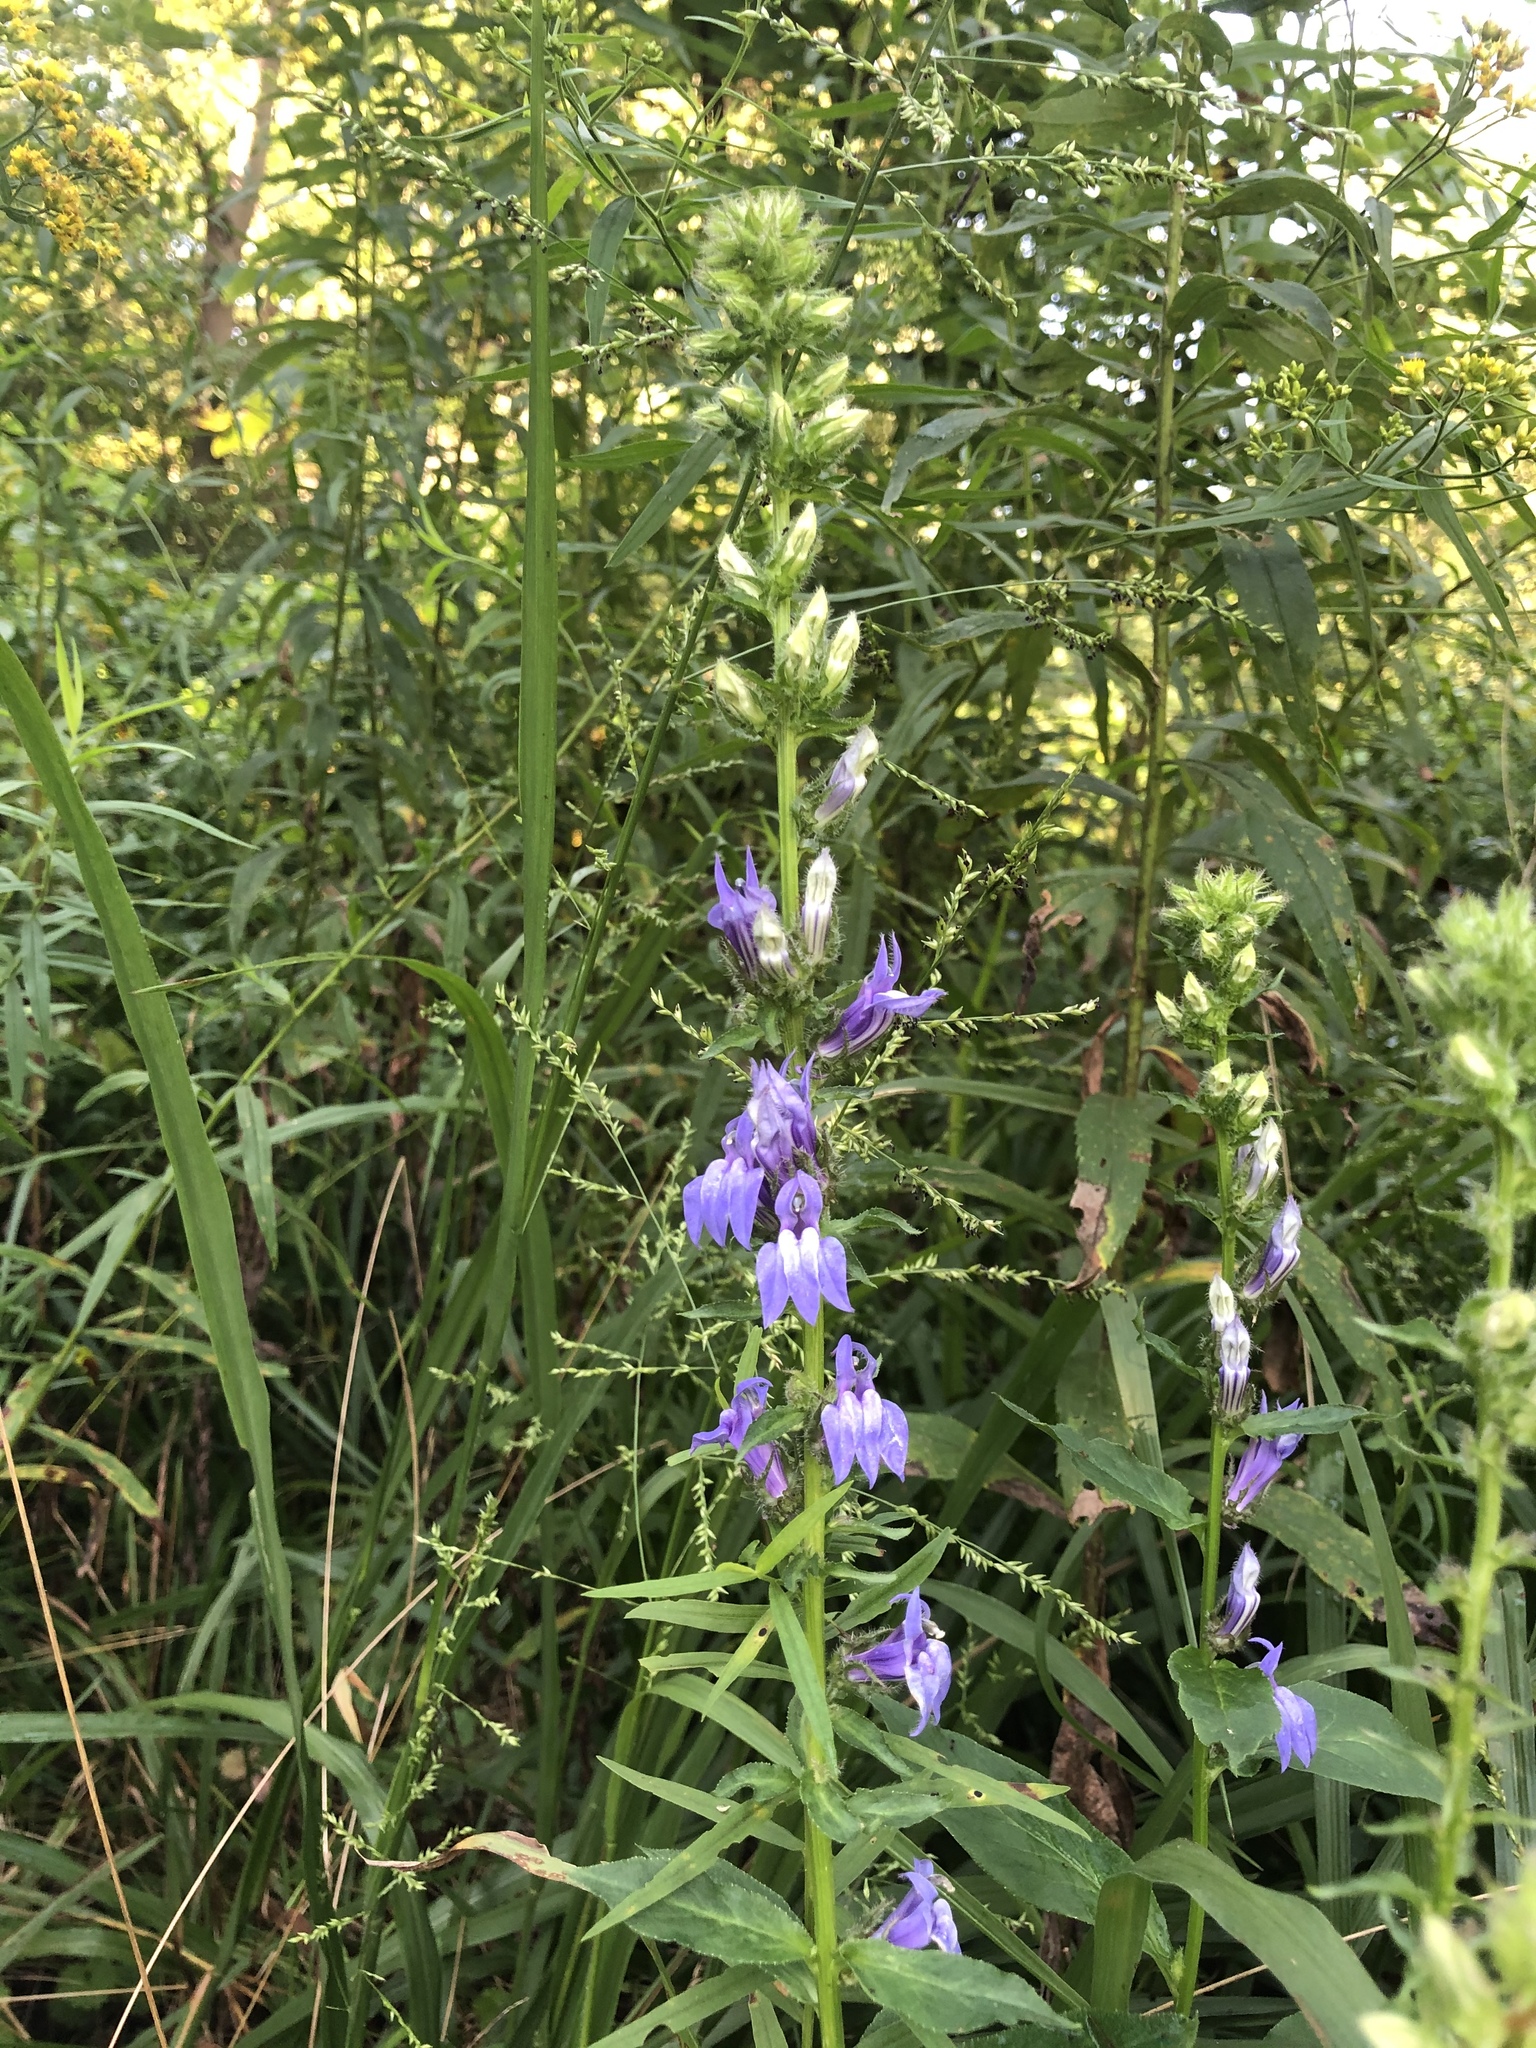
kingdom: Plantae
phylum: Tracheophyta
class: Magnoliopsida
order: Asterales
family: Campanulaceae
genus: Lobelia
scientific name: Lobelia siphilitica
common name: Great lobelia
